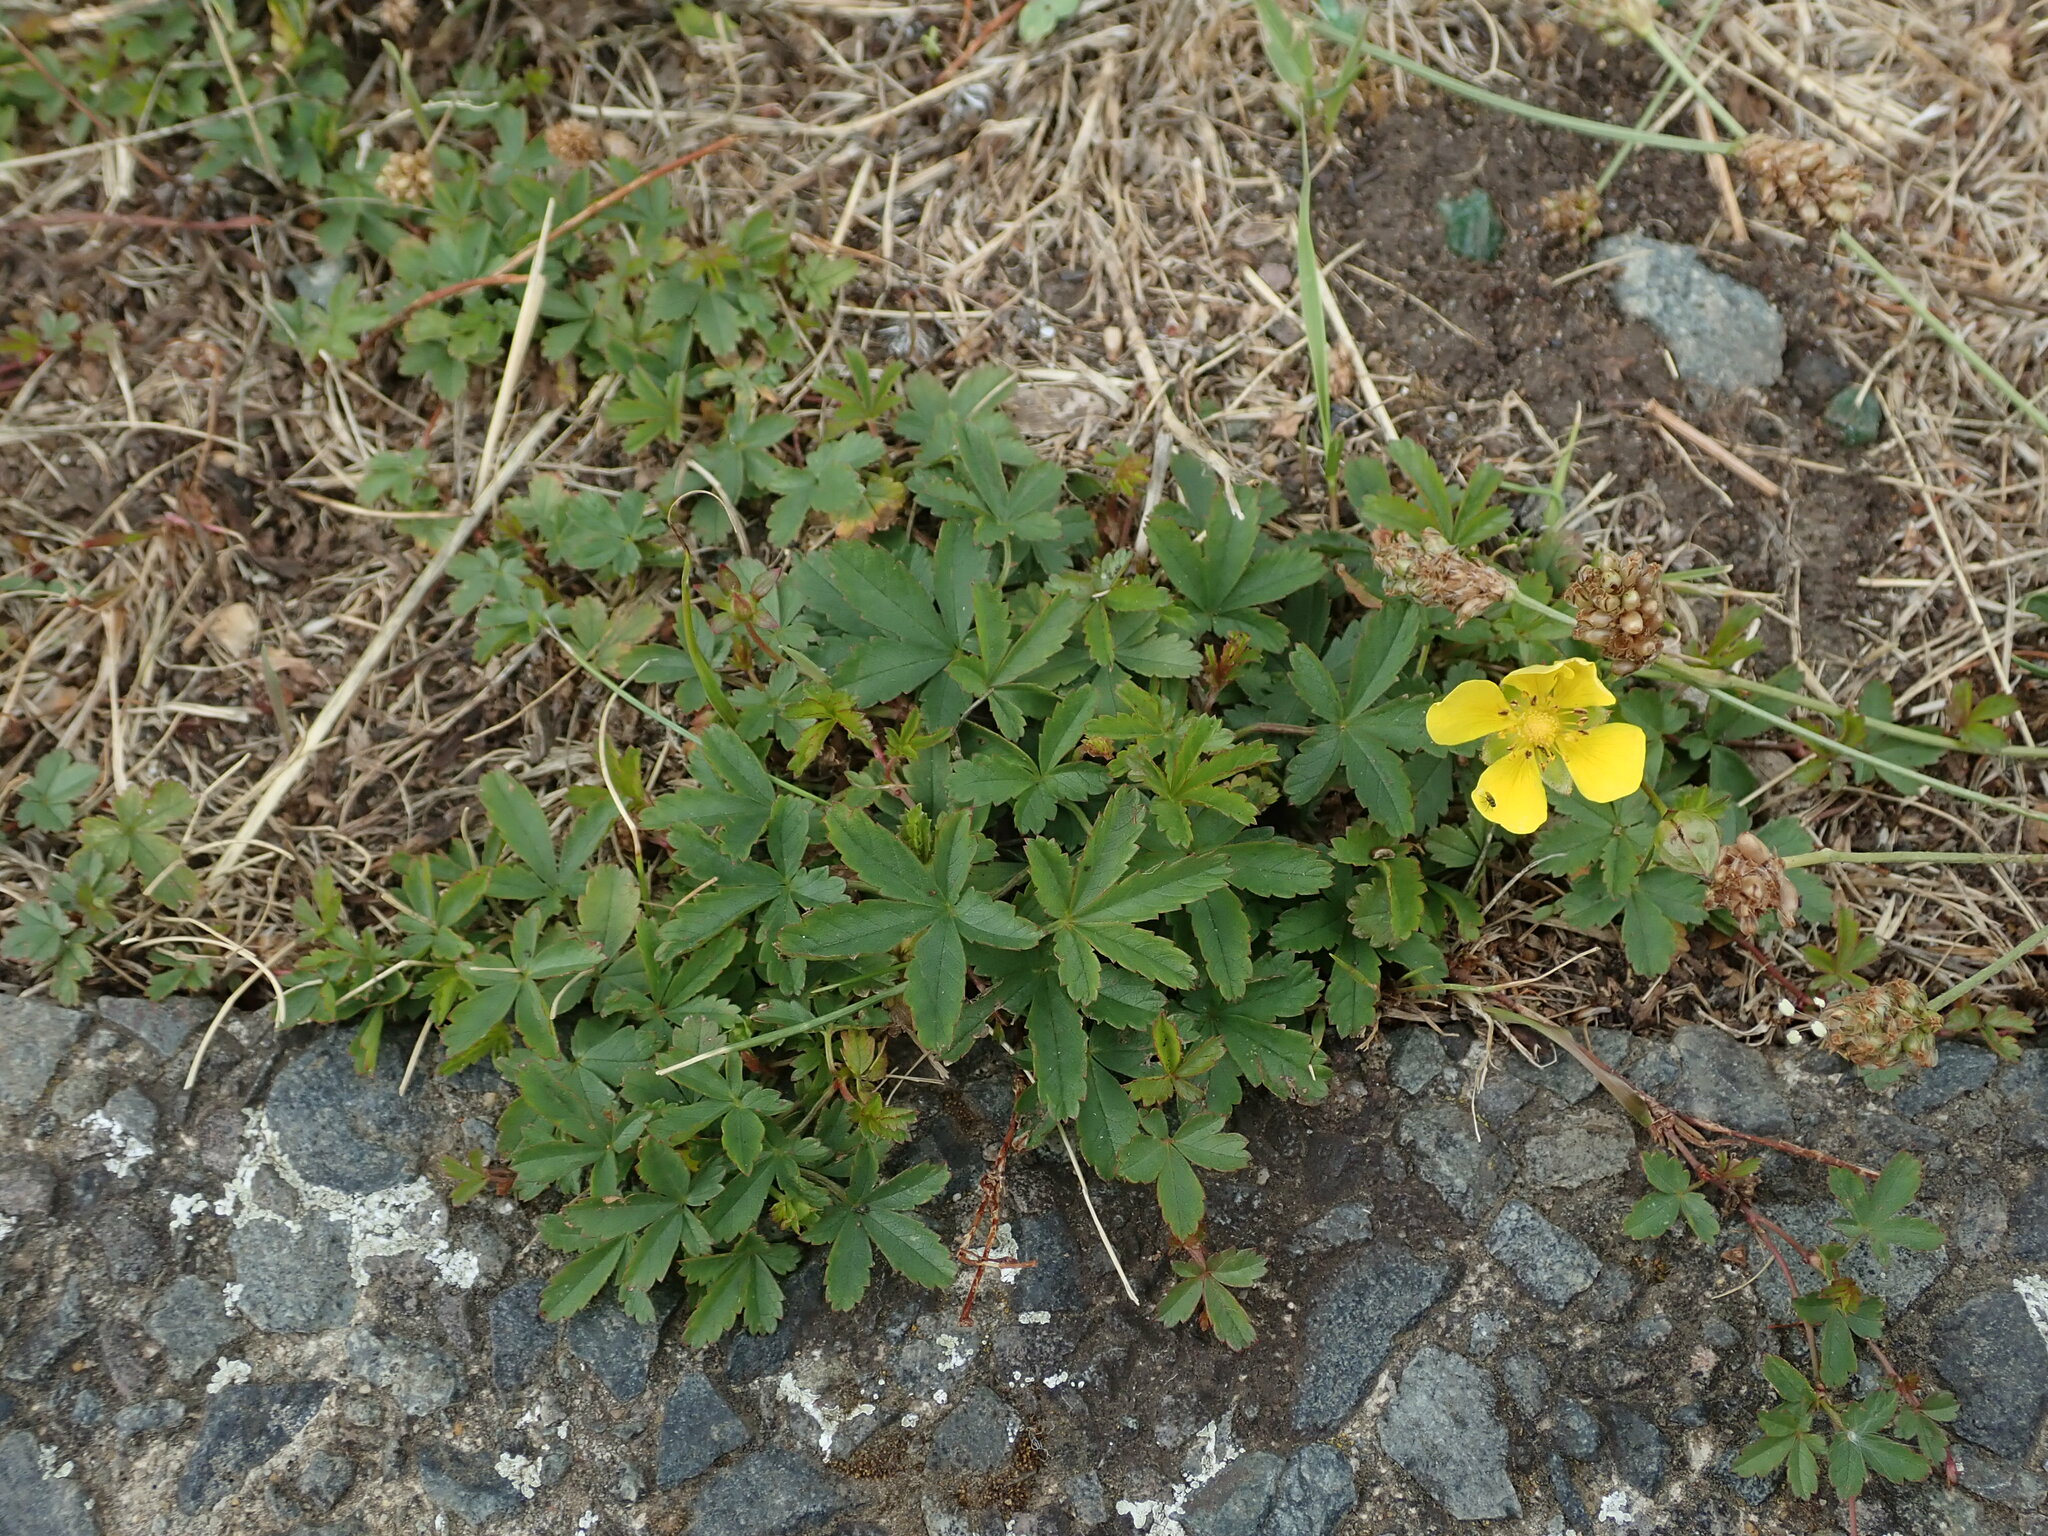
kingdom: Plantae
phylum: Tracheophyta
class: Magnoliopsida
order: Rosales
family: Rosaceae
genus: Potentilla
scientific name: Potentilla reptans
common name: Creeping cinquefoil
